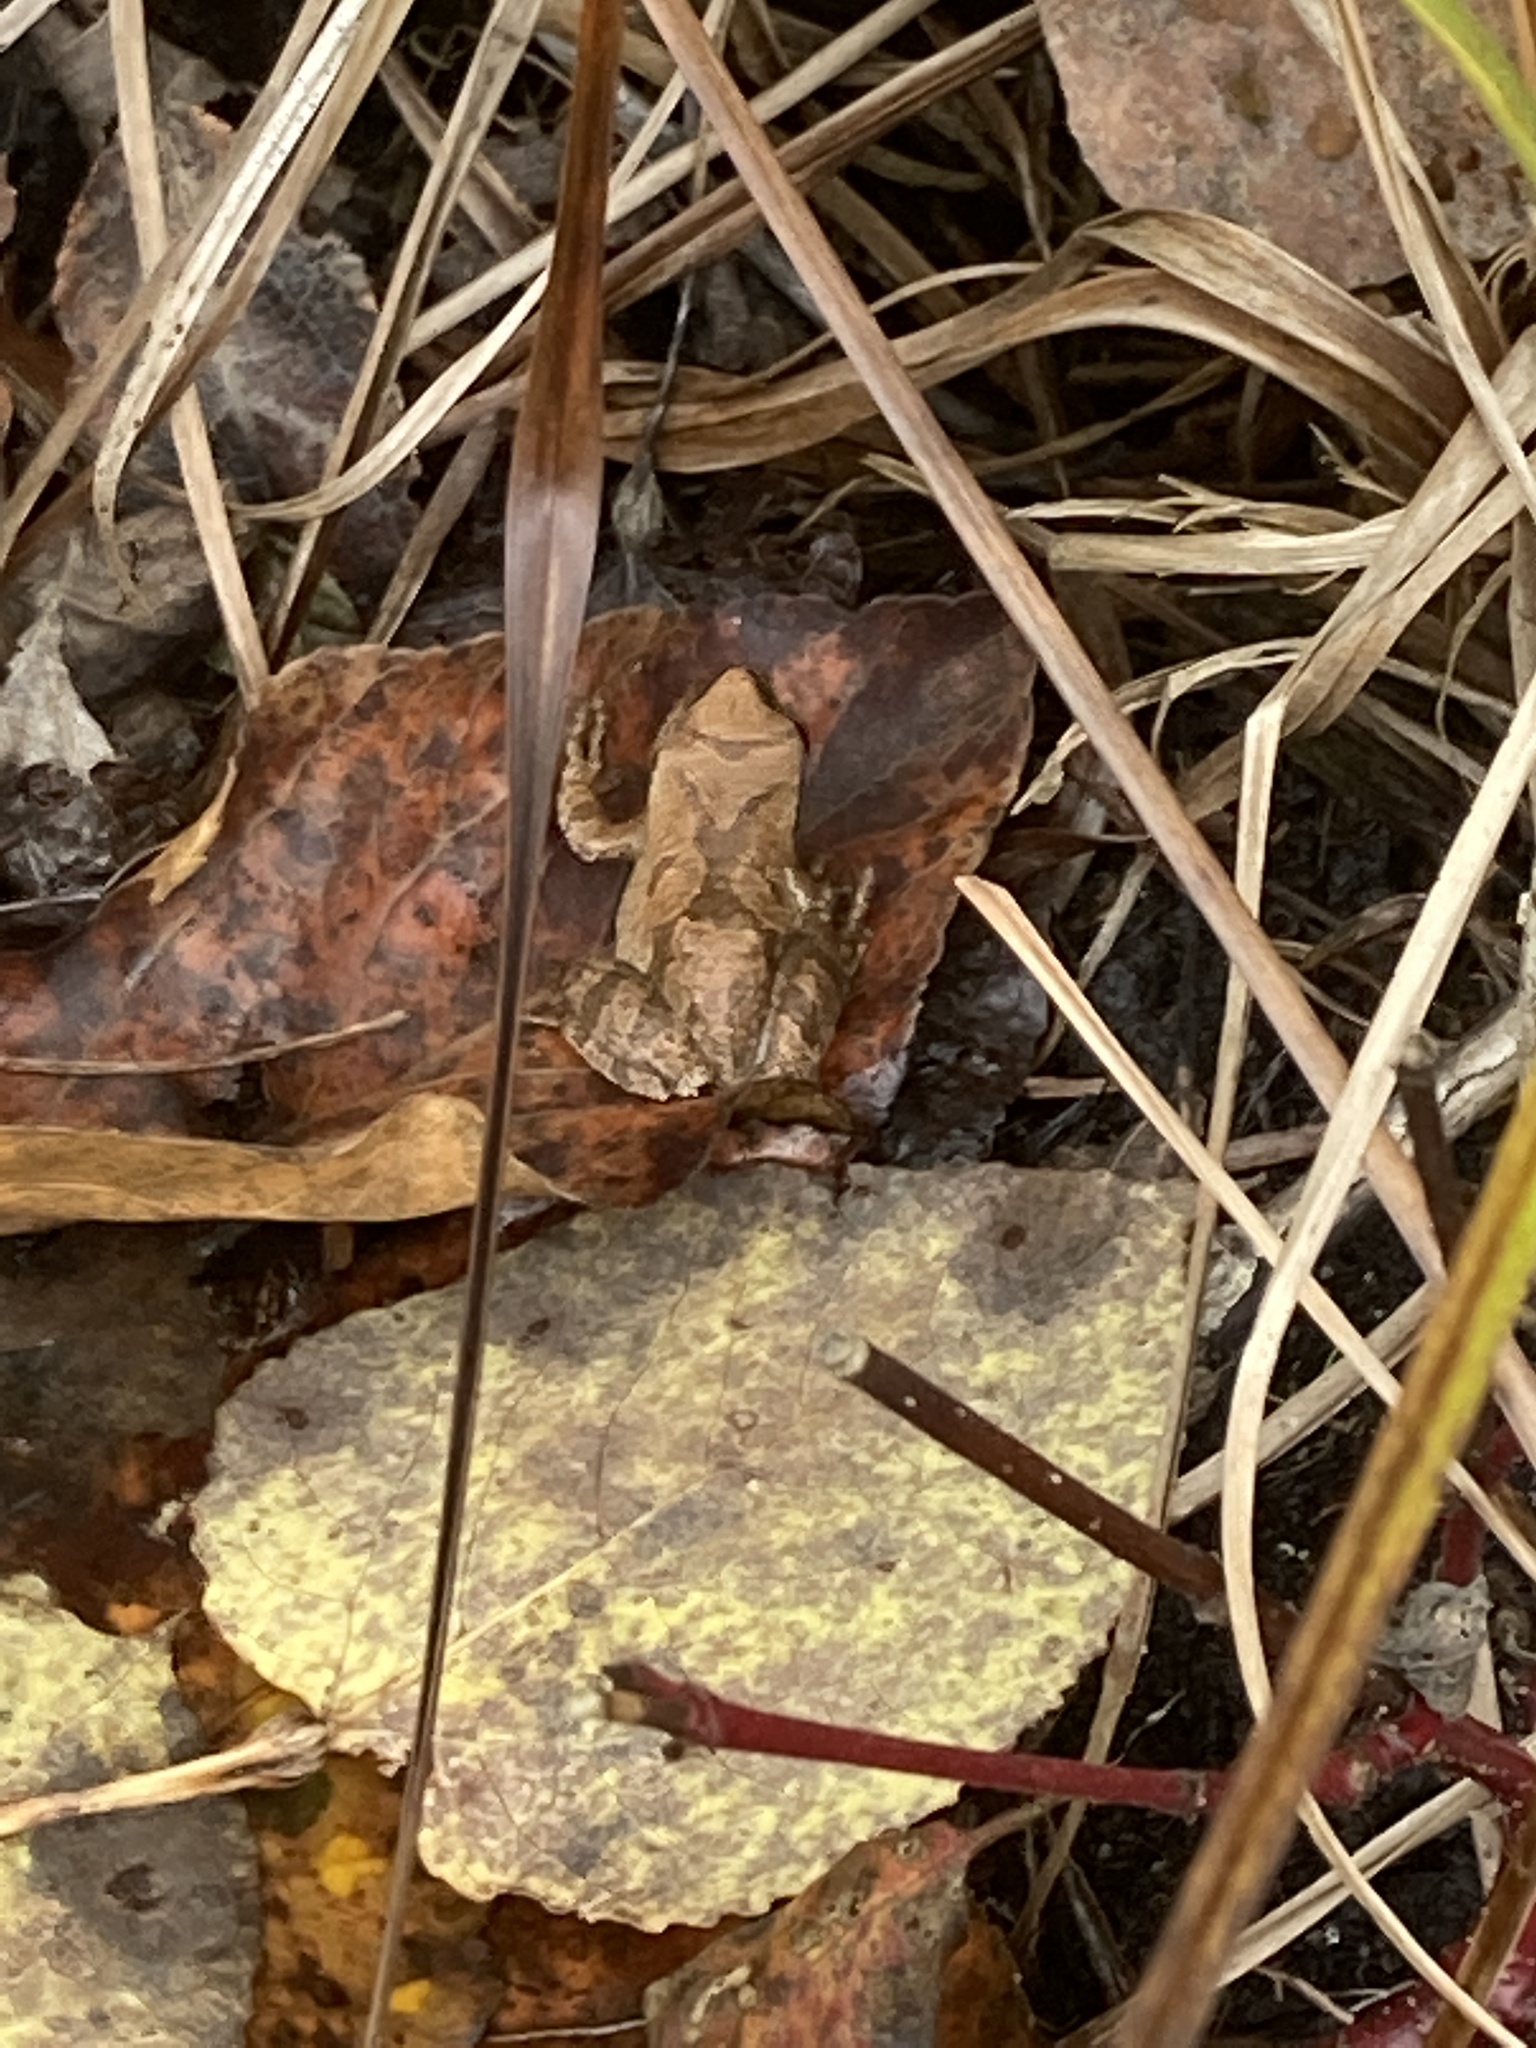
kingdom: Animalia
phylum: Chordata
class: Amphibia
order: Anura
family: Hylidae
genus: Pseudacris
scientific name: Pseudacris crucifer
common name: Spring peeper
